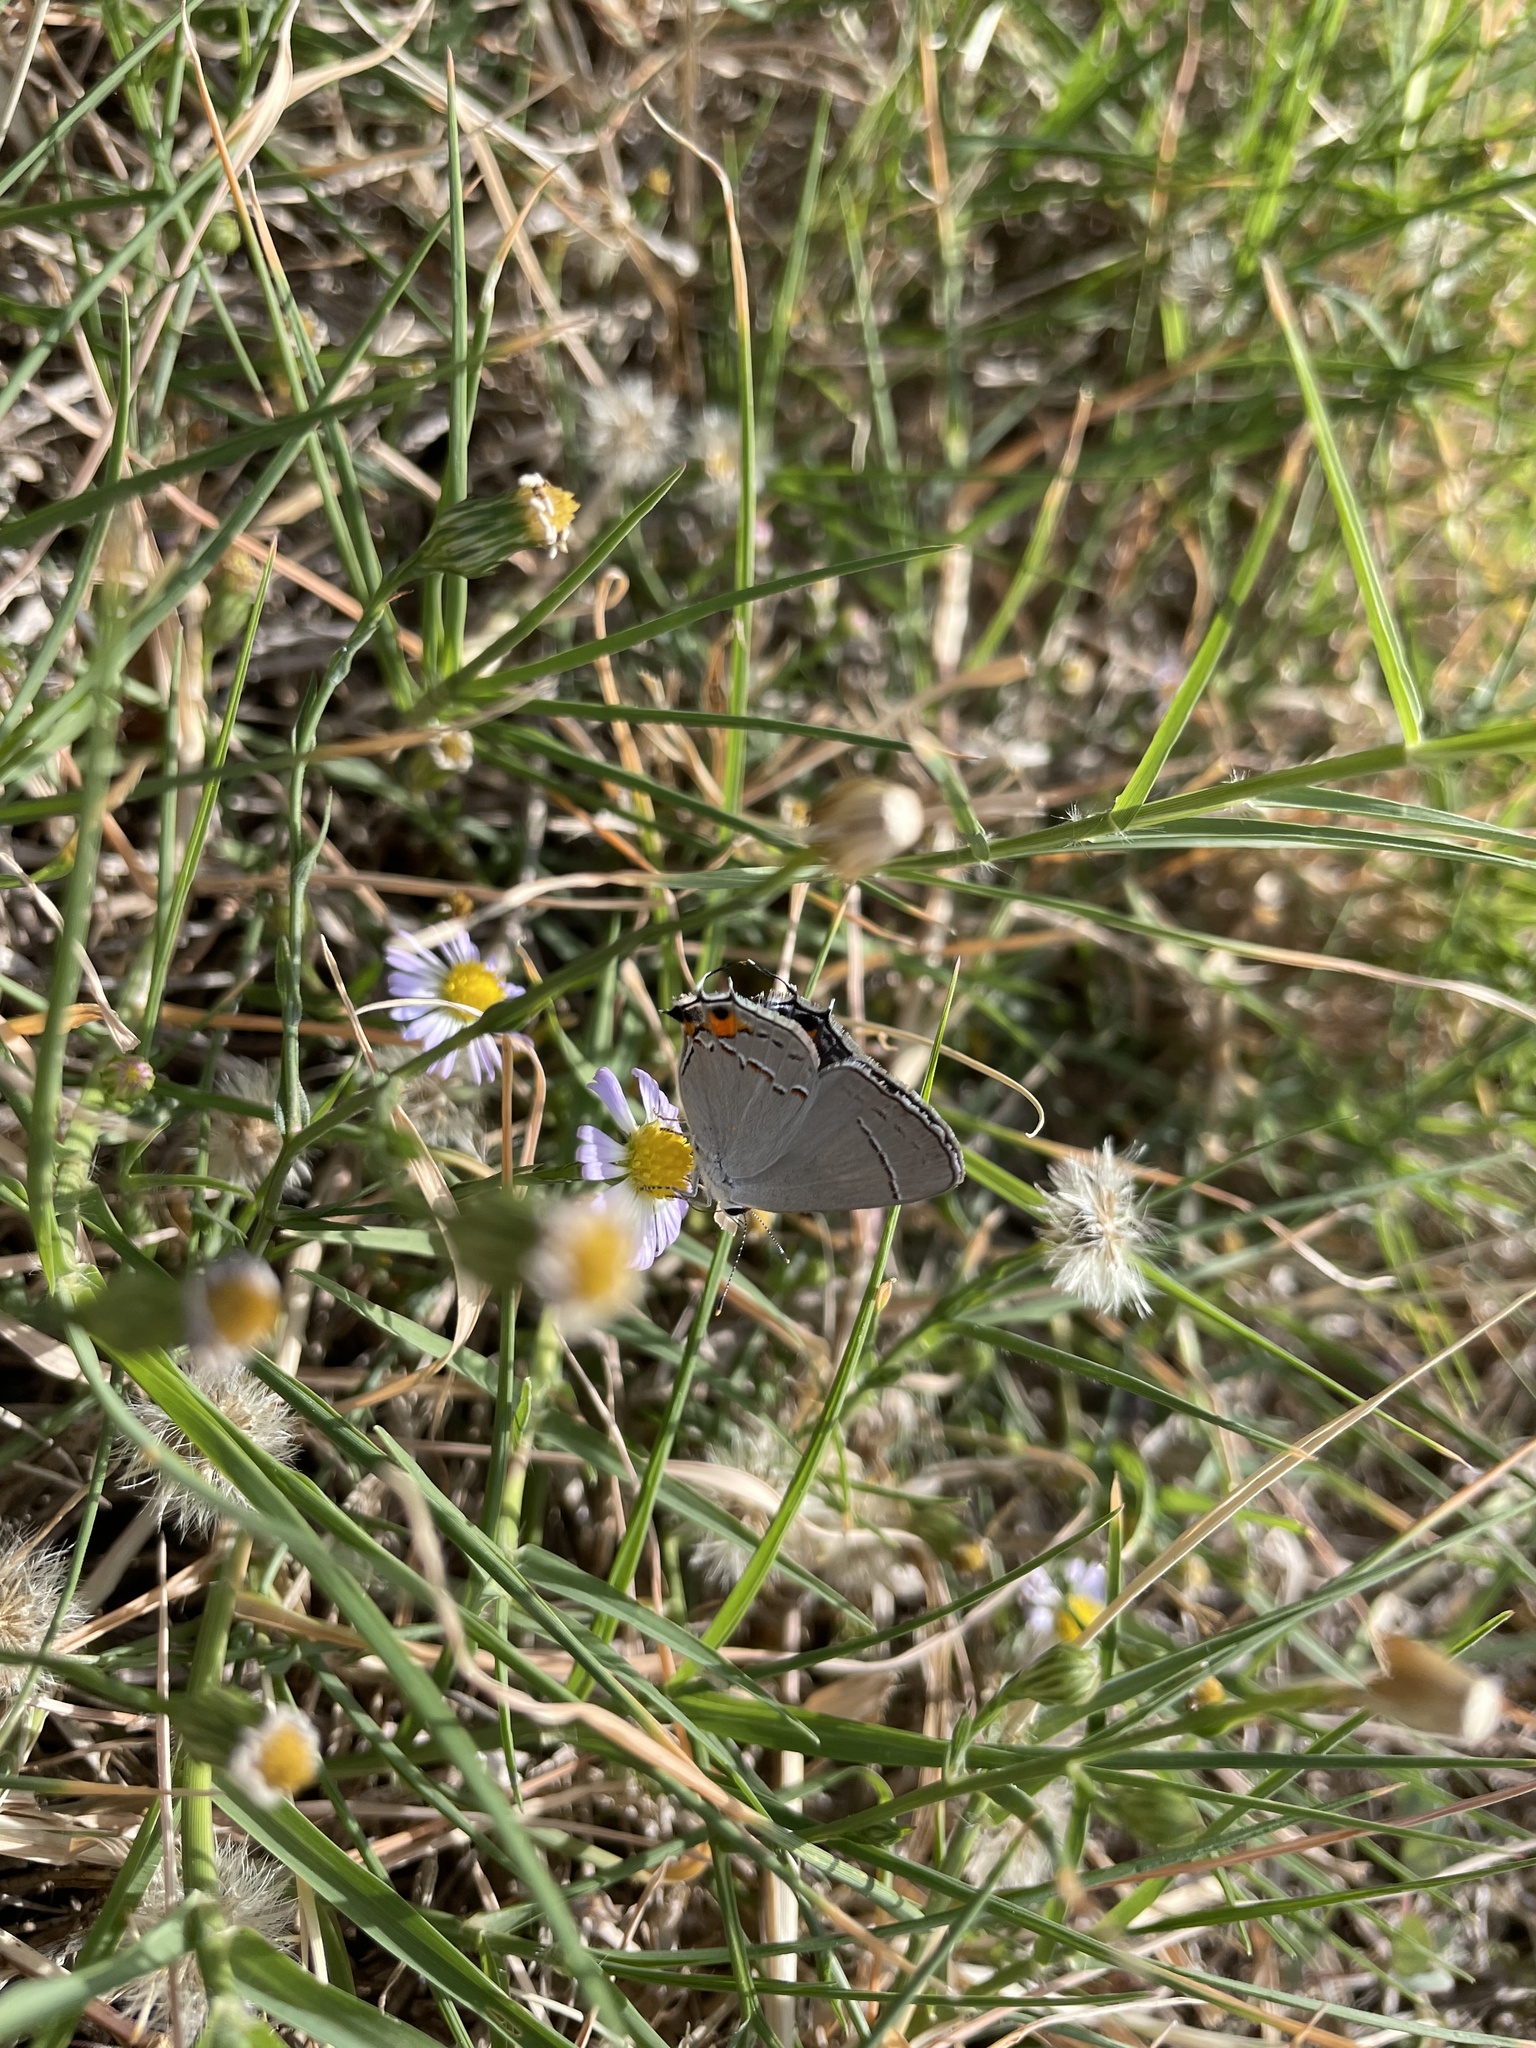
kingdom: Animalia
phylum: Arthropoda
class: Insecta
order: Lepidoptera
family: Lycaenidae
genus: Strymon
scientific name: Strymon melinus
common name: Gray hairstreak
